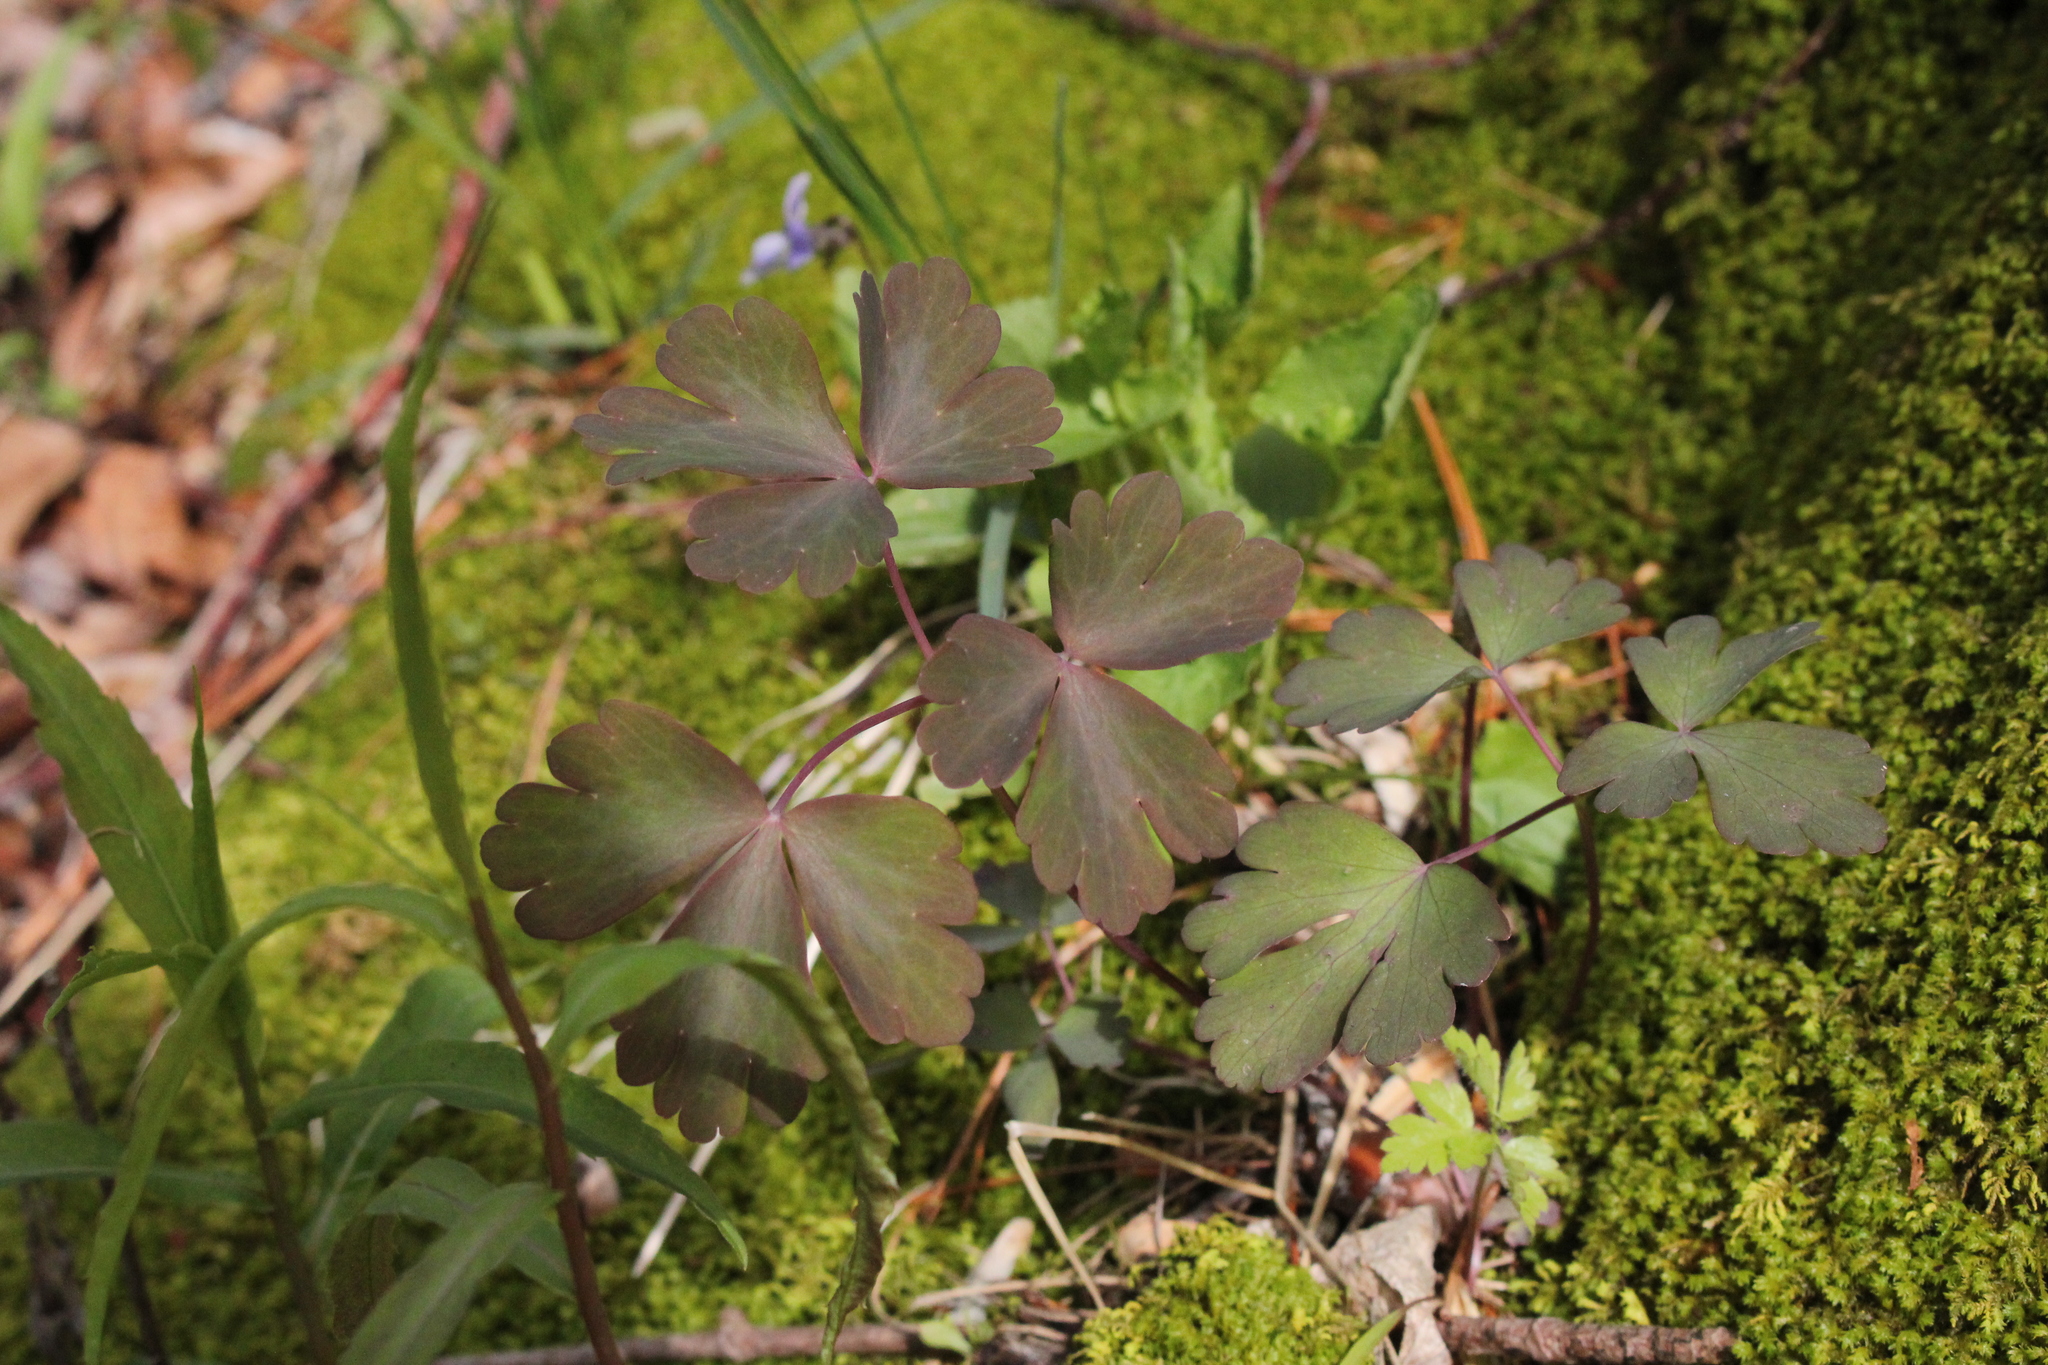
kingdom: Plantae
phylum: Tracheophyta
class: Magnoliopsida
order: Ranunculales
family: Ranunculaceae
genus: Aquilegia
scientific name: Aquilegia canadensis
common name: American columbine
